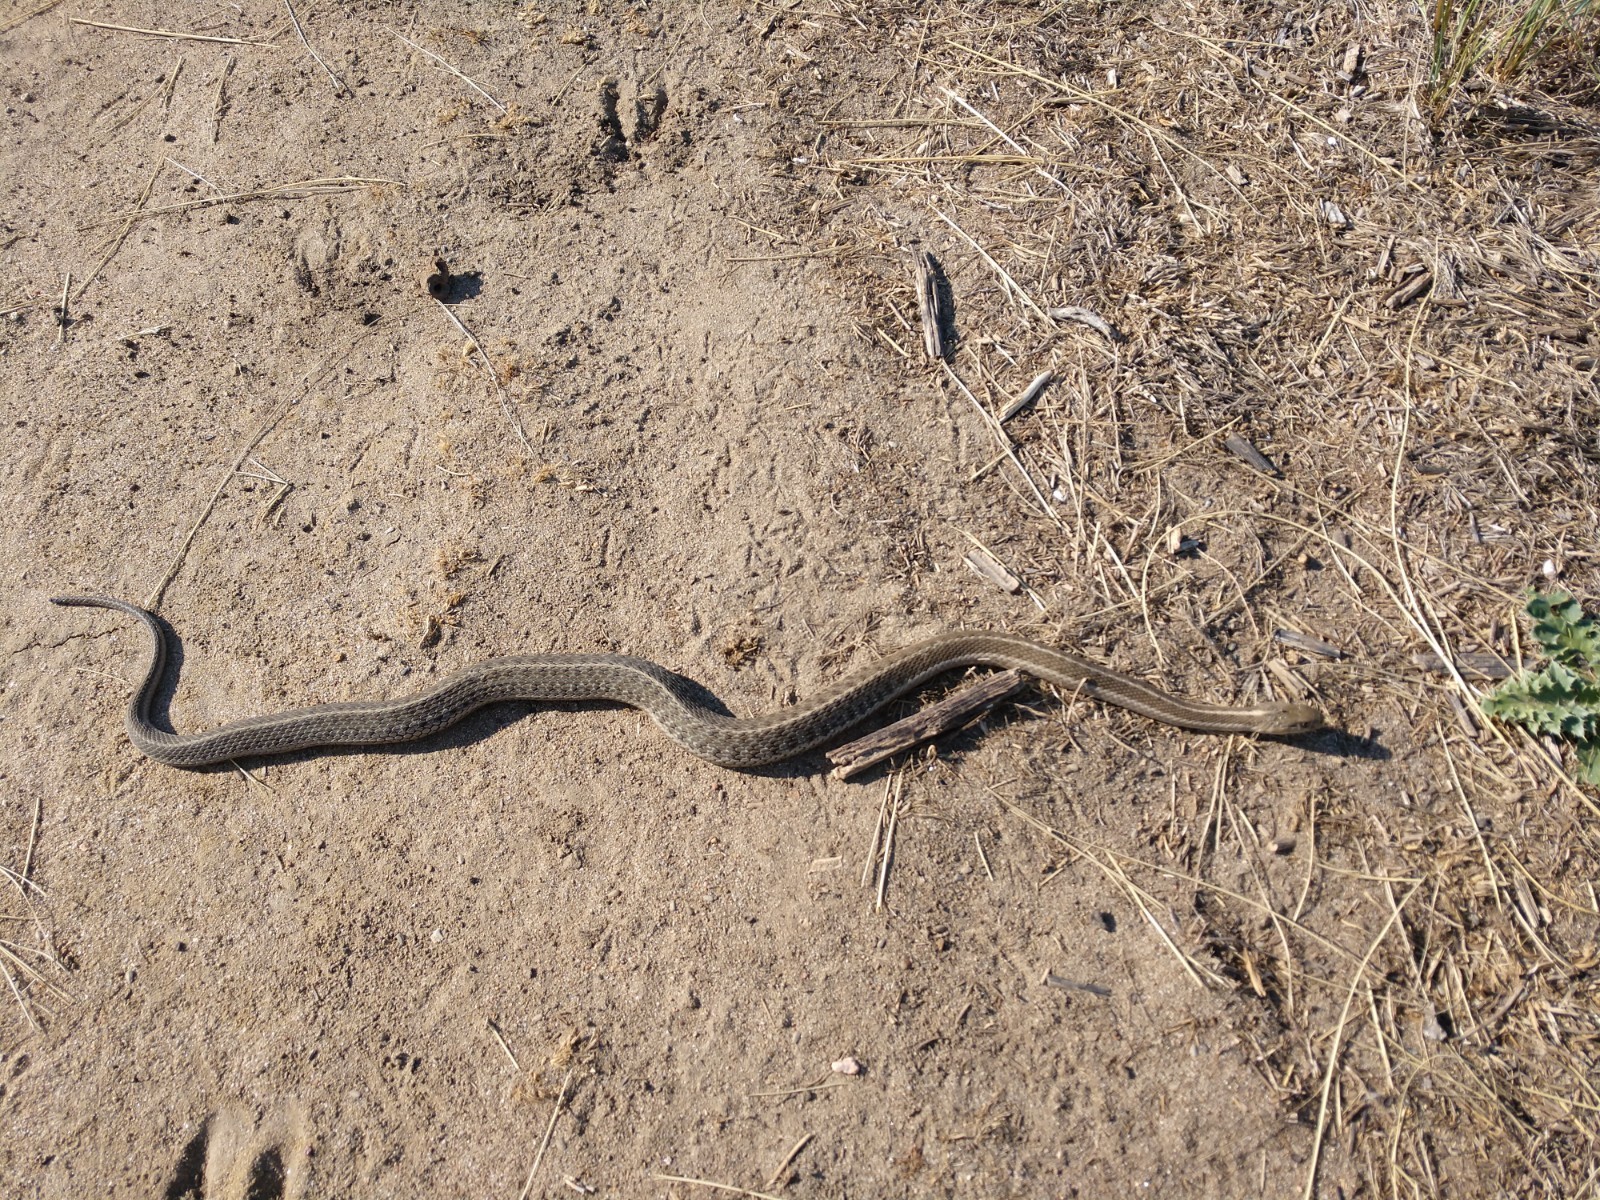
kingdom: Animalia
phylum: Chordata
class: Squamata
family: Colubridae
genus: Thamnophis
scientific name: Thamnophis elegans
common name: Western terrestrial garter snake
